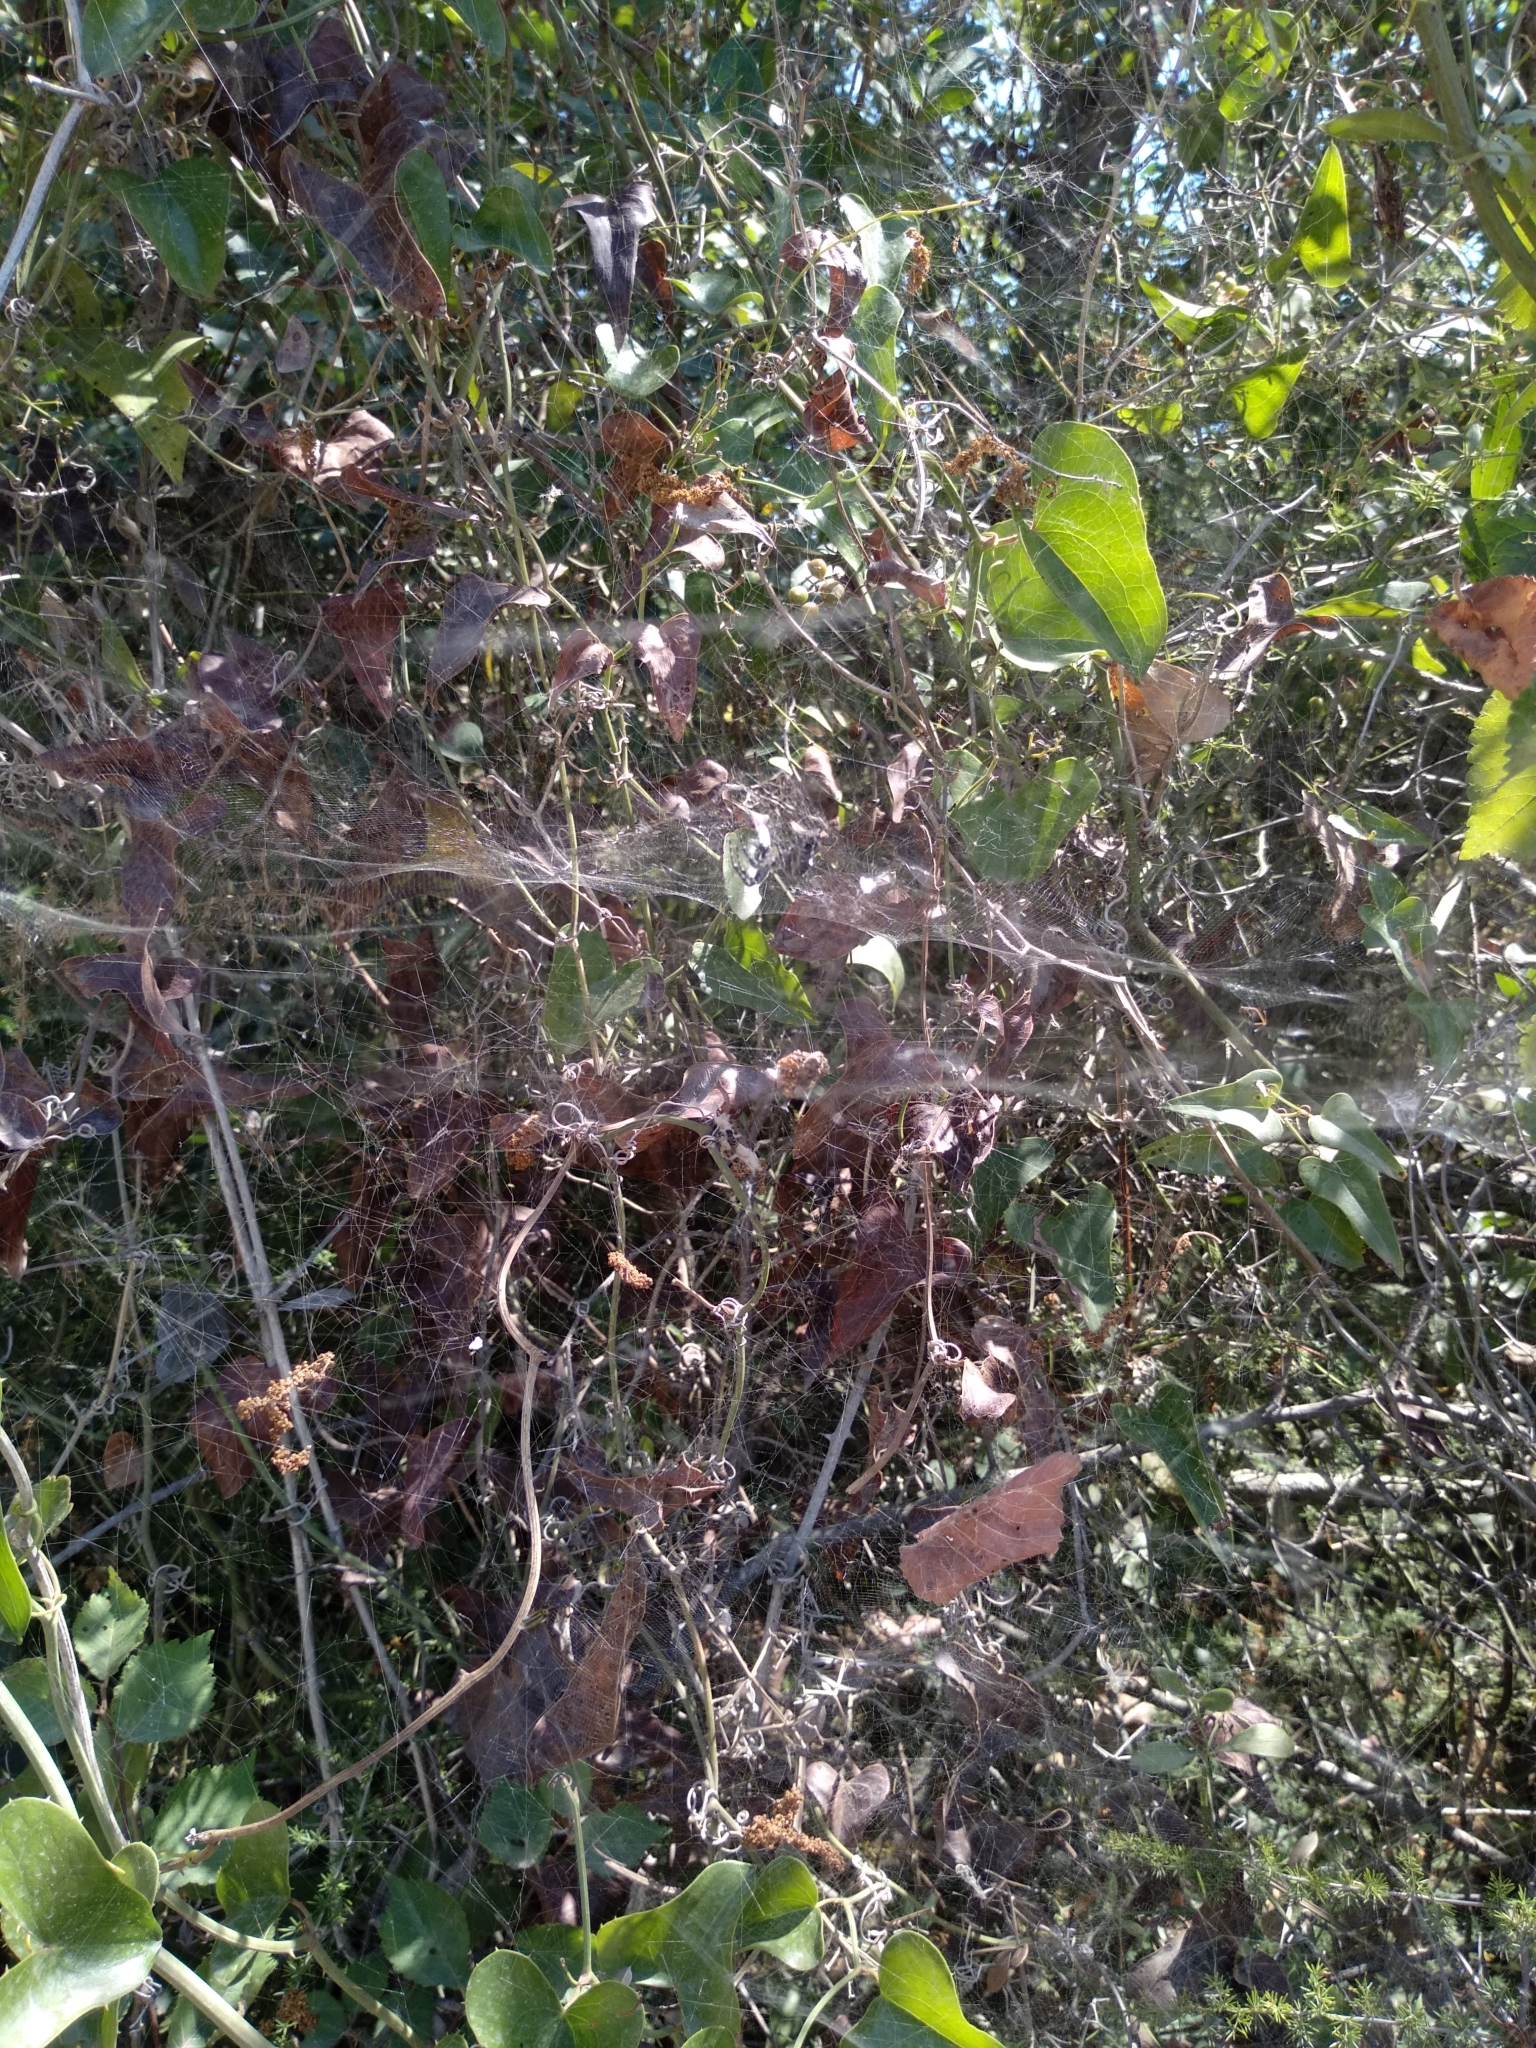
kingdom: Animalia
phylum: Arthropoda
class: Arachnida
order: Araneae
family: Araneidae
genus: Cyrtophora
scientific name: Cyrtophora citricola
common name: Orb weavers
